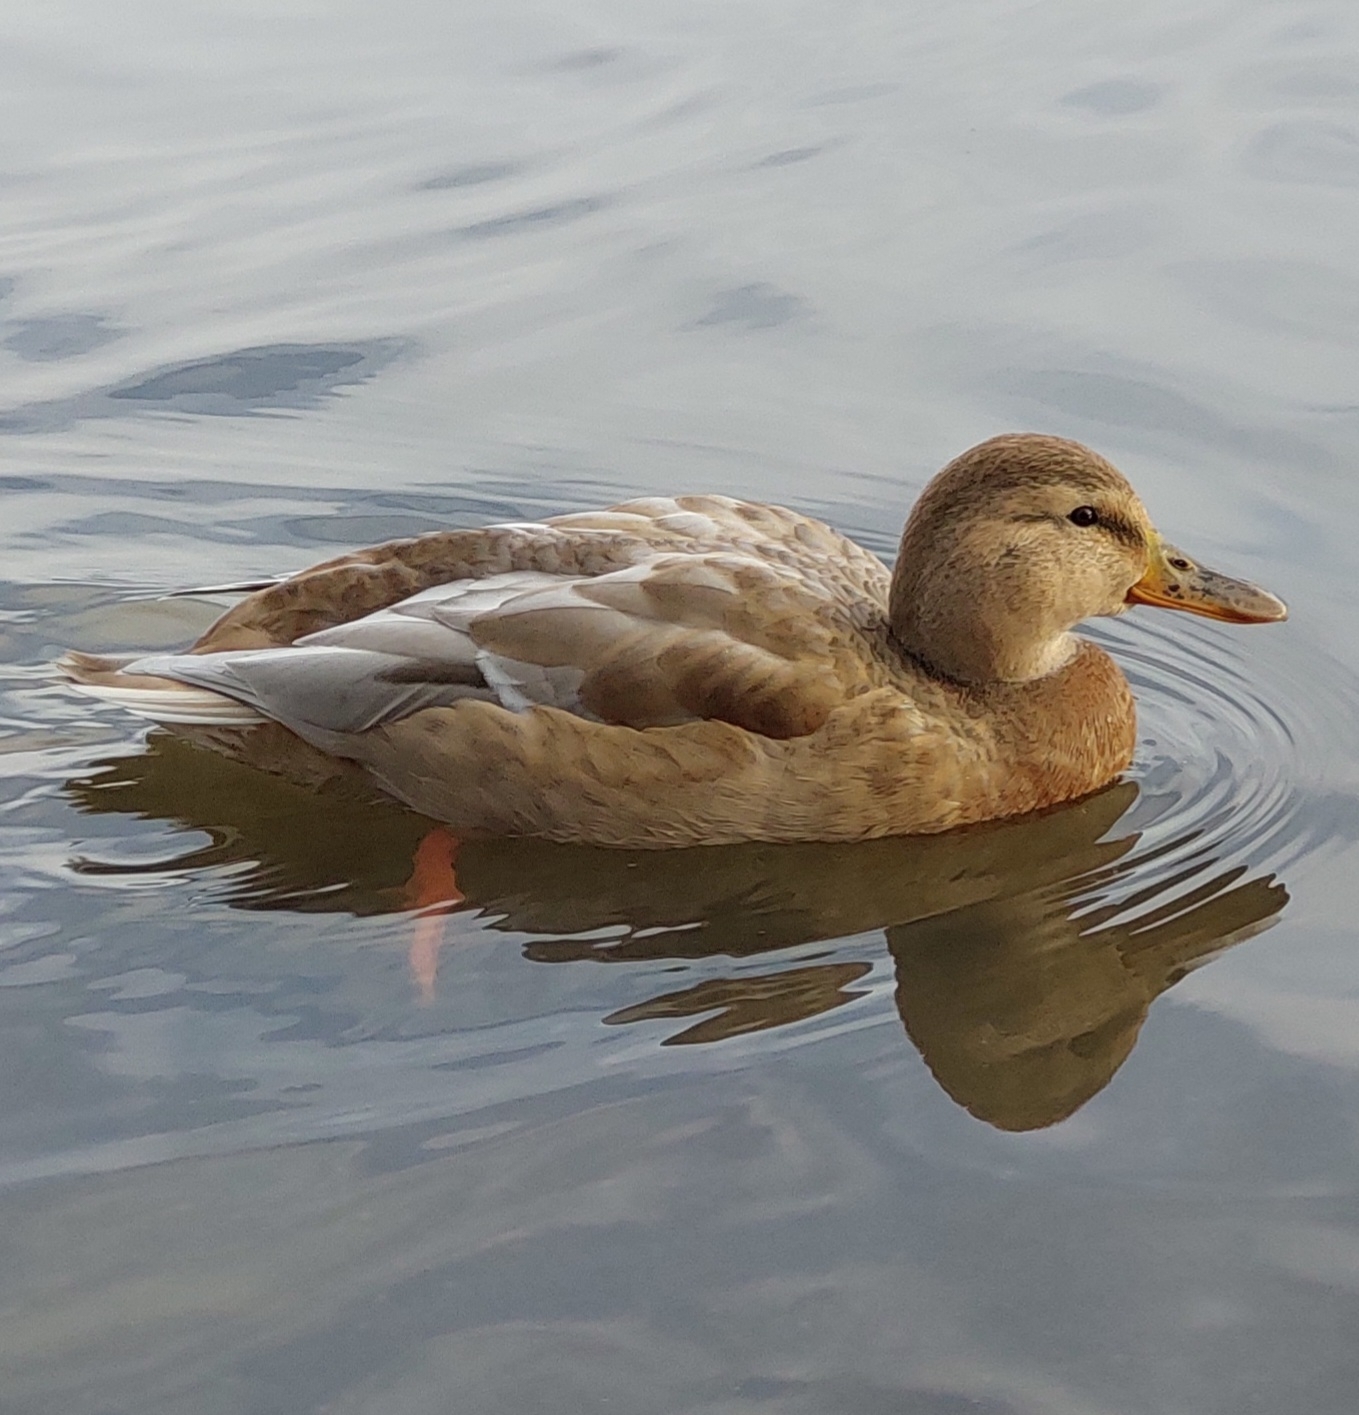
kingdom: Animalia
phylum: Chordata
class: Aves
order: Anseriformes
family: Anatidae
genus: Anas
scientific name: Anas platyrhynchos
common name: Mallard
